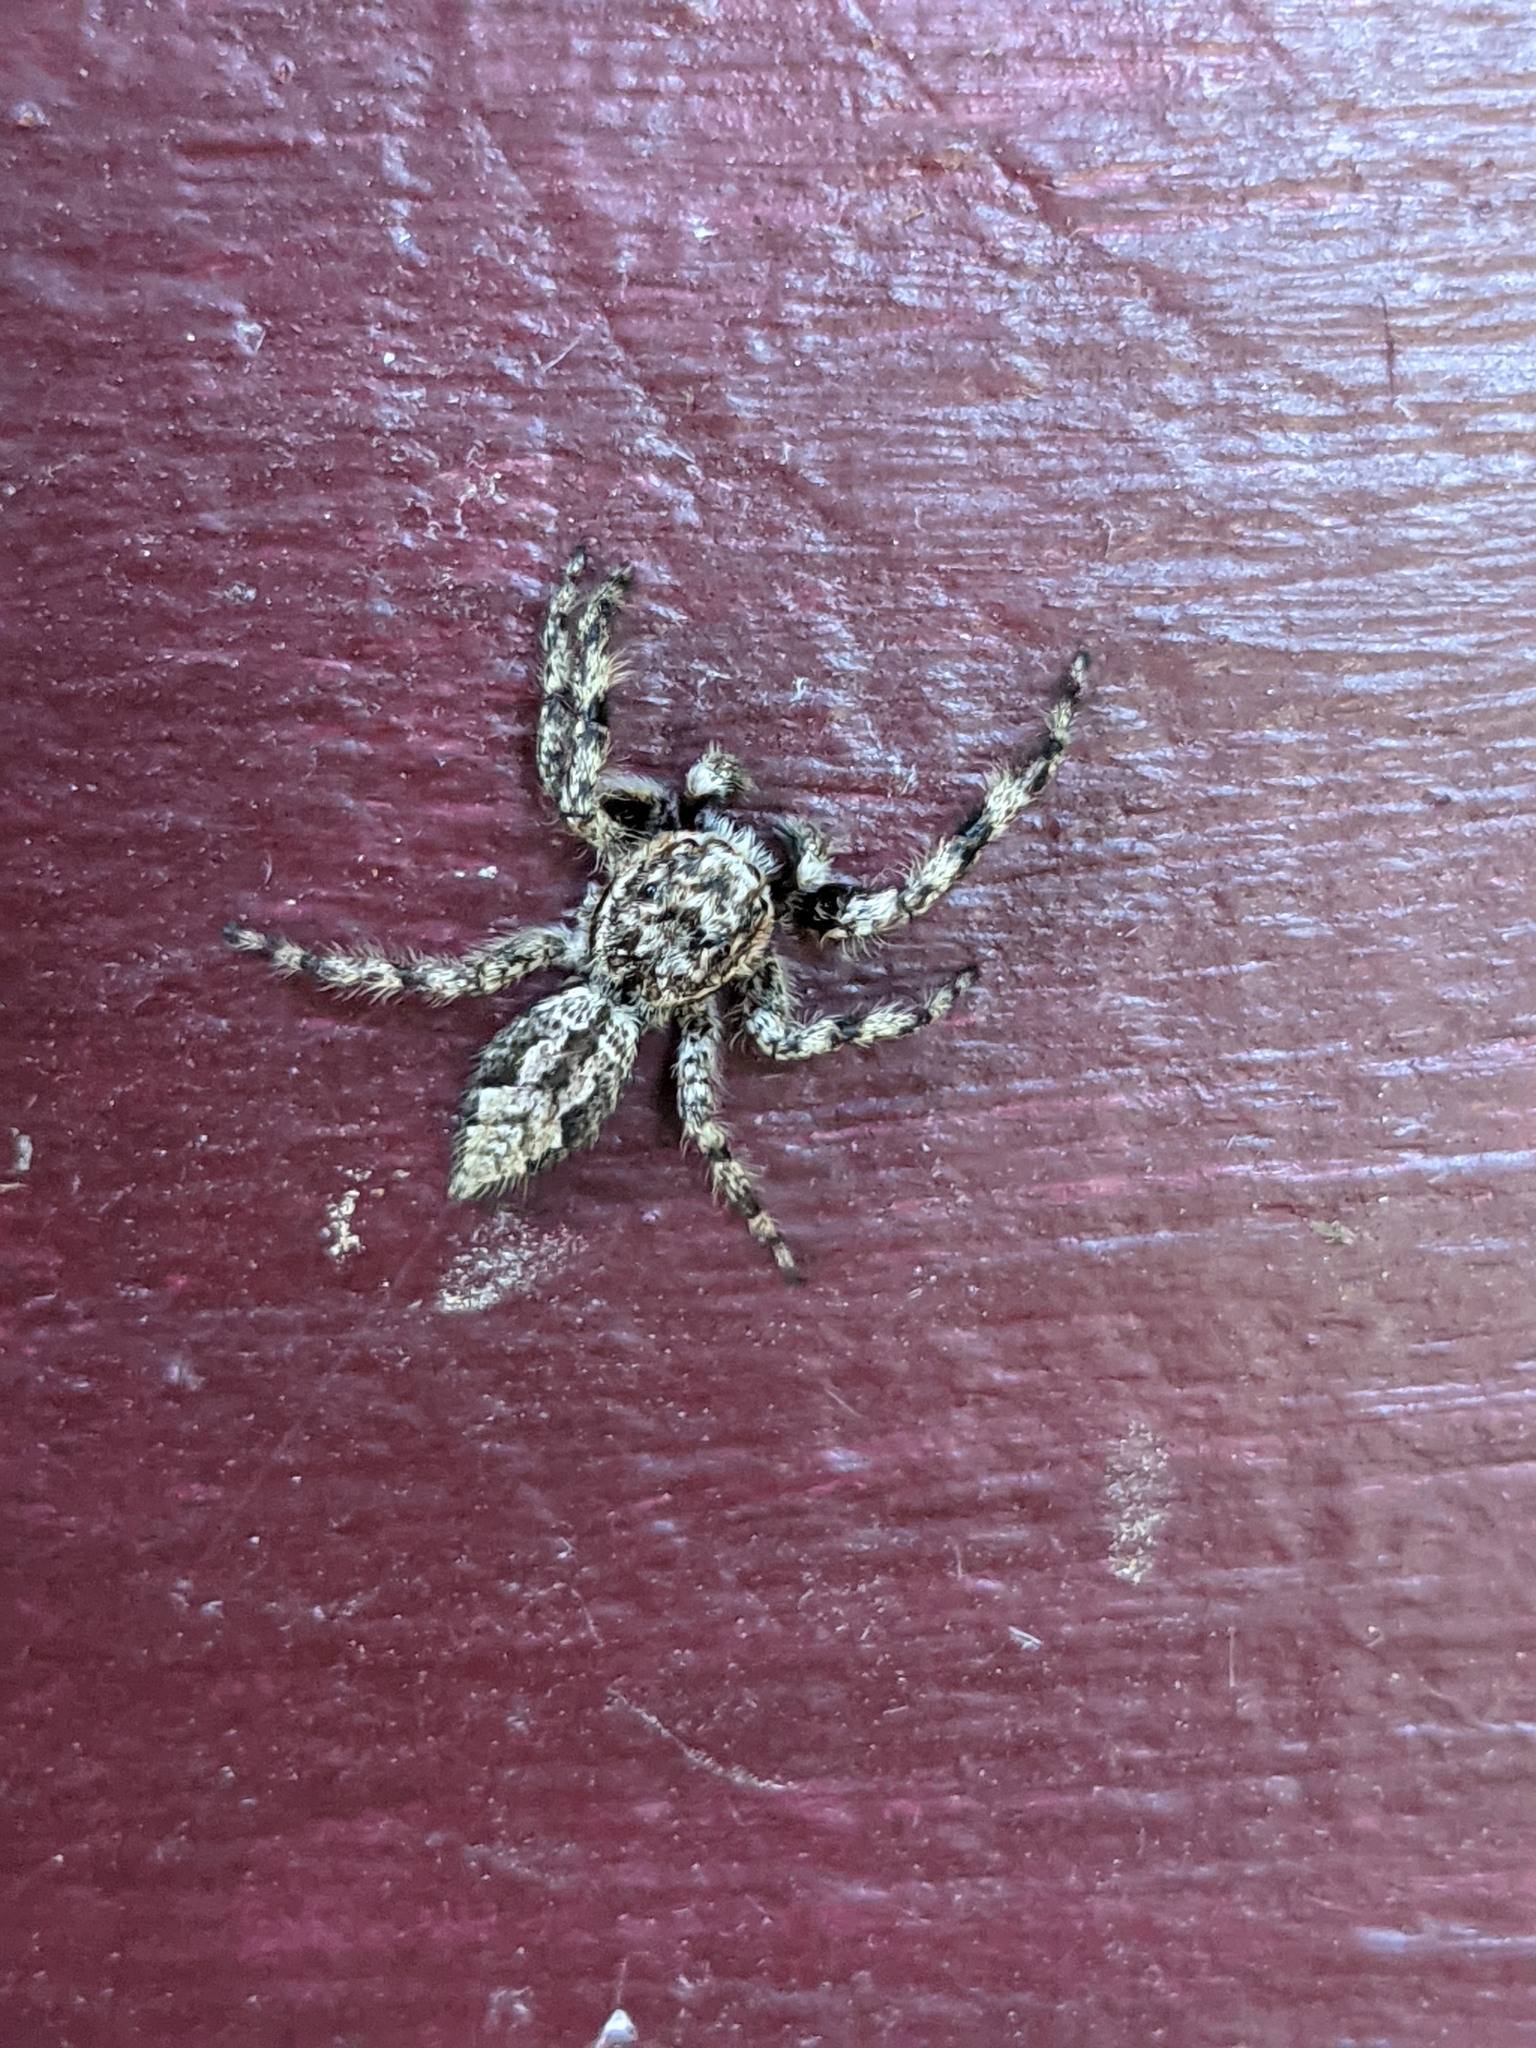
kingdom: Animalia
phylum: Arthropoda
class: Arachnida
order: Araneae
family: Salticidae
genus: Platycryptus
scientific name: Platycryptus undatus
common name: Tan jumping spider
